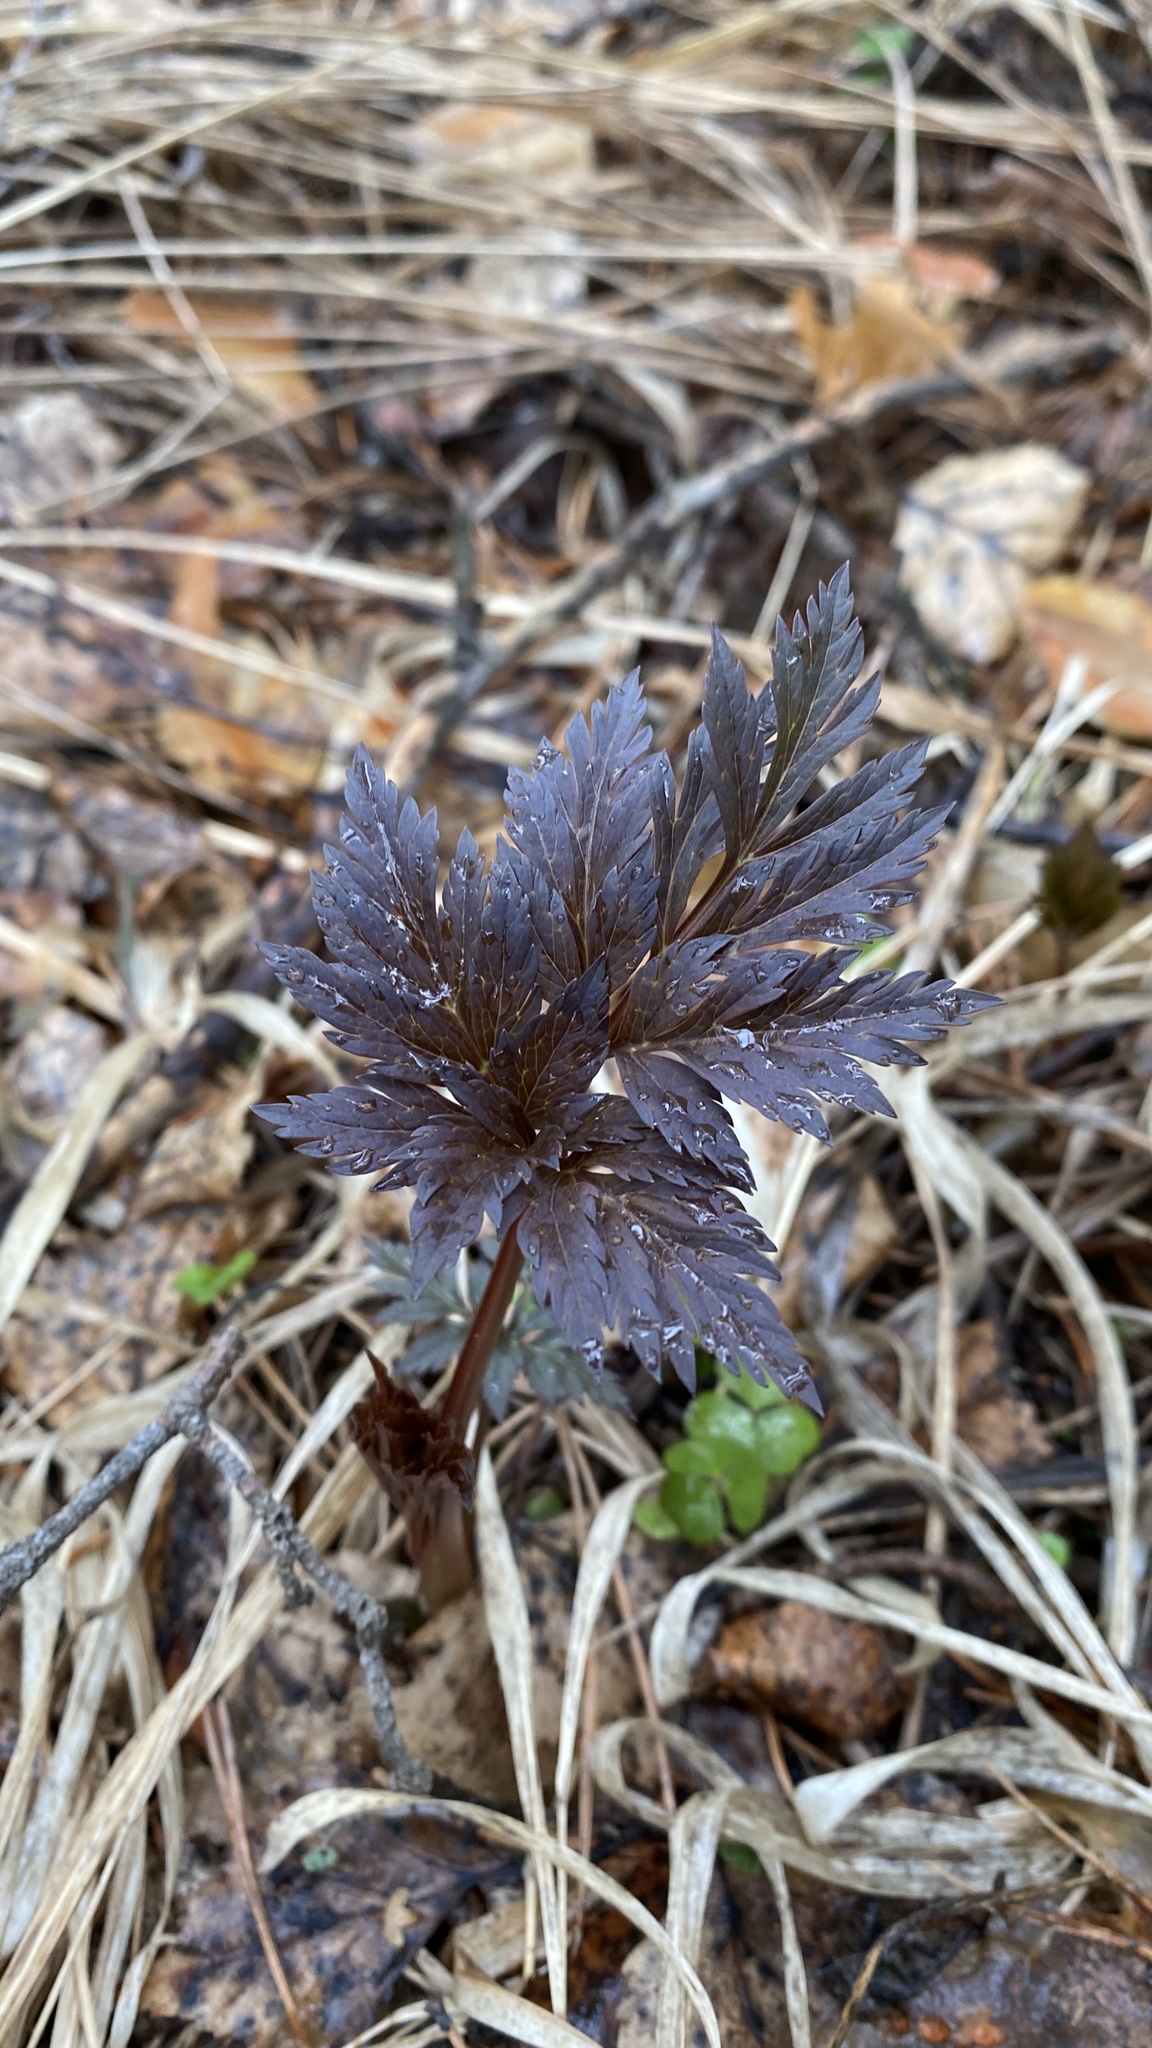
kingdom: Plantae
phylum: Tracheophyta
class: Magnoliopsida
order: Apiales
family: Apiaceae
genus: Pleurospermum
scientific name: Pleurospermum uralense
